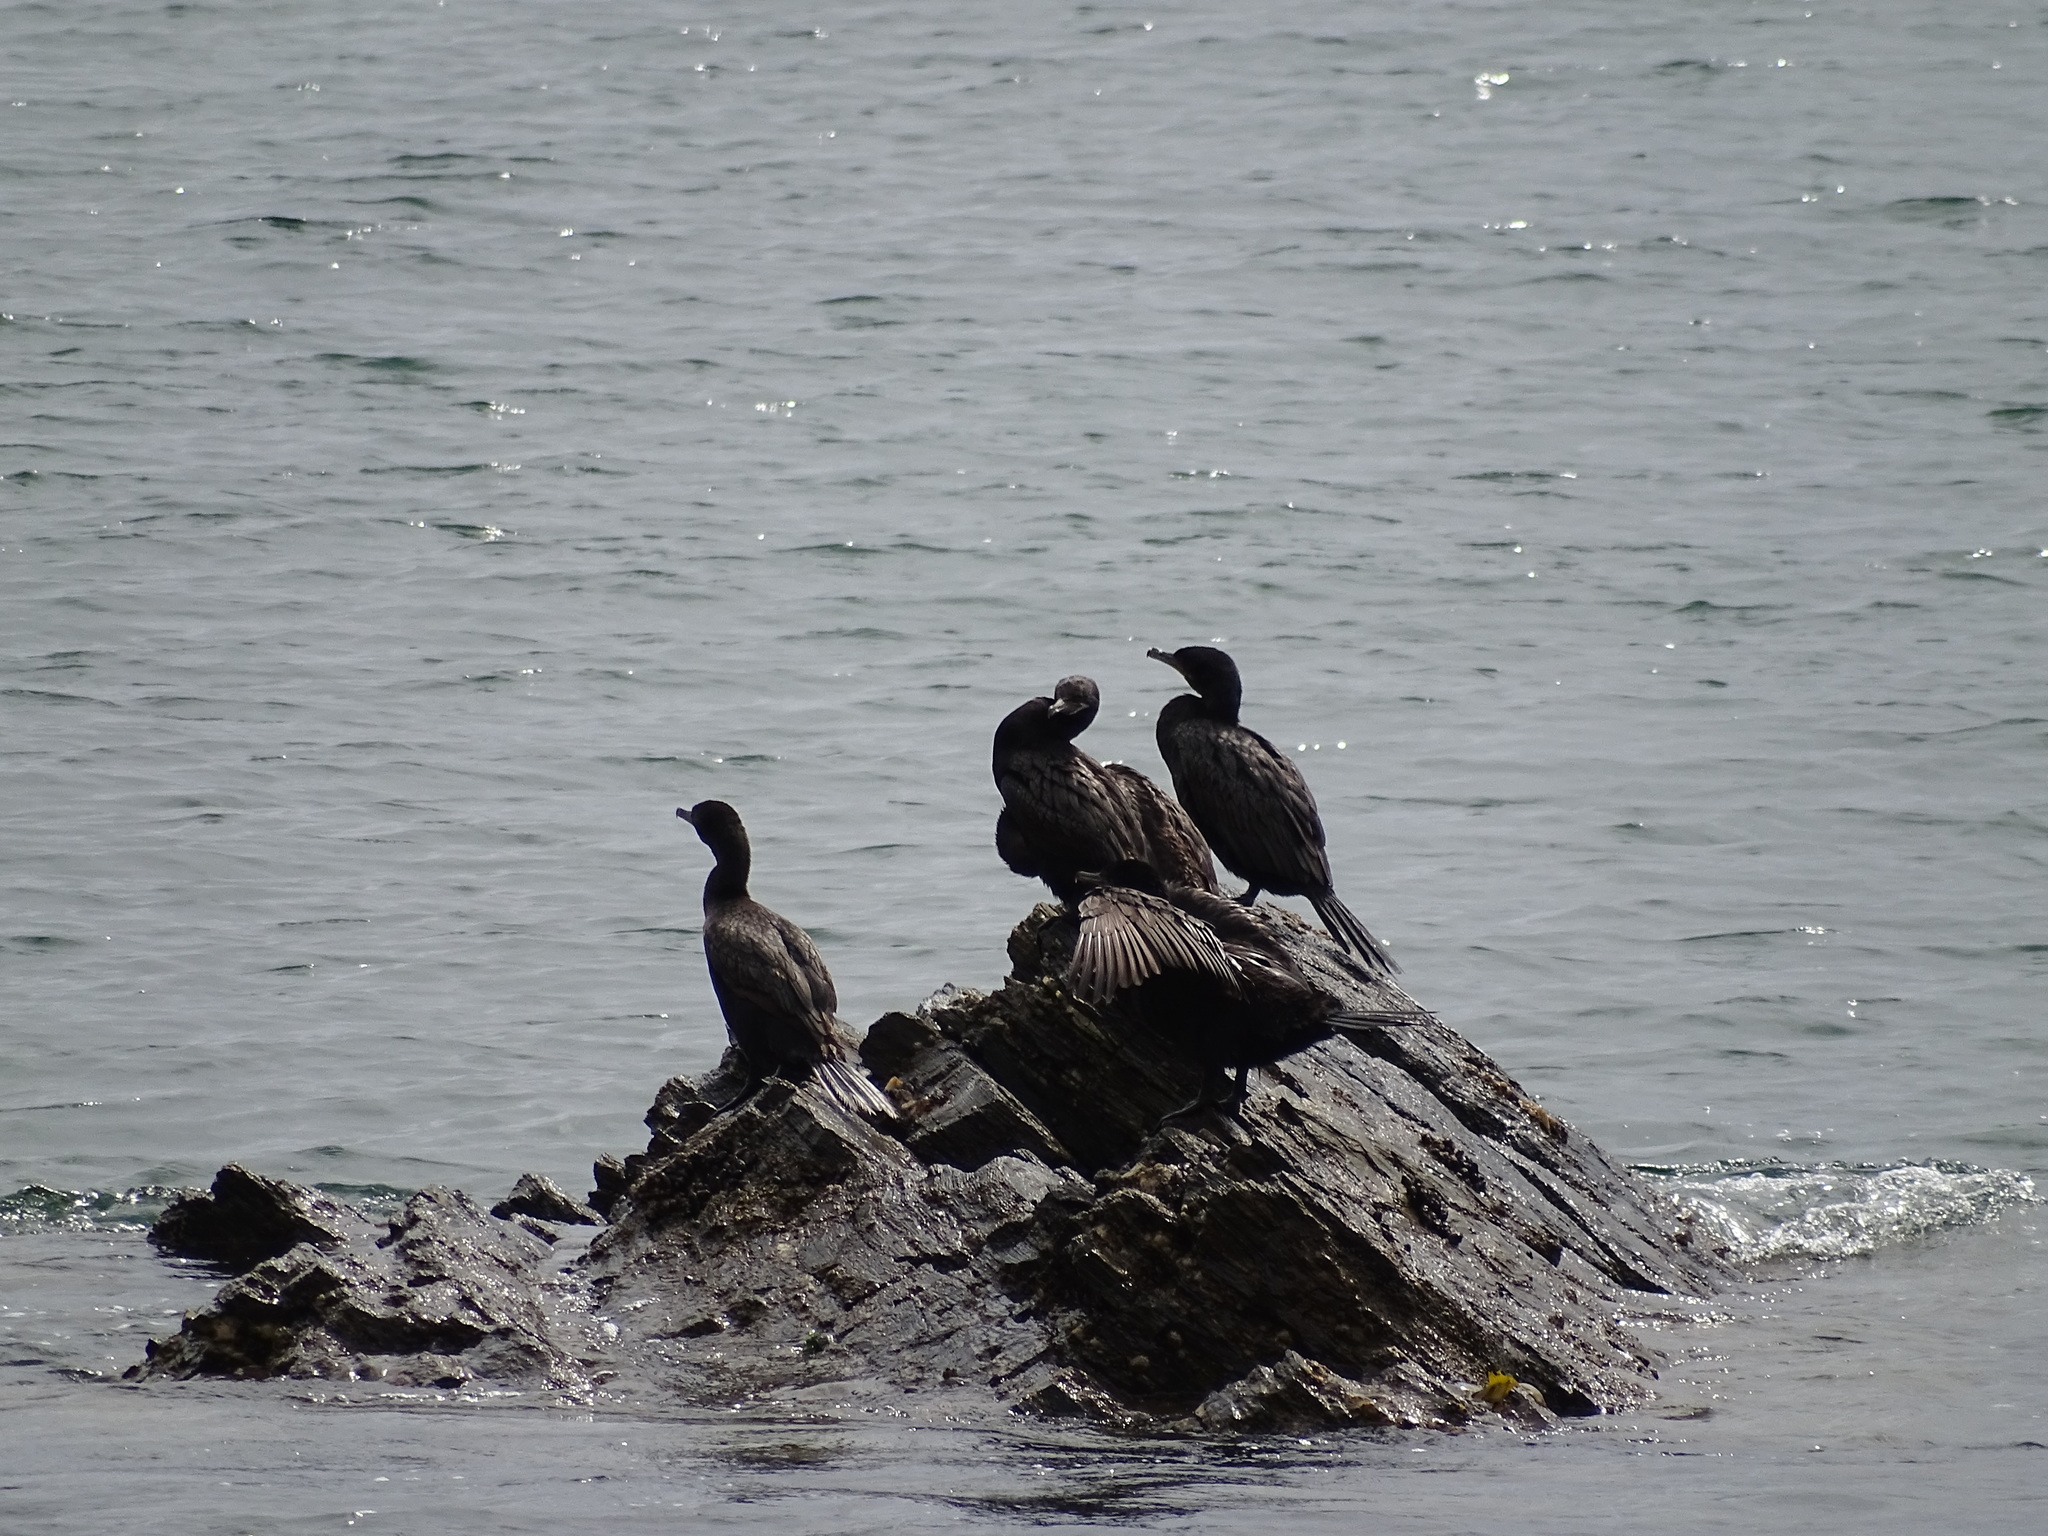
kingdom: Animalia
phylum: Chordata
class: Aves
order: Suliformes
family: Phalacrocoracidae
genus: Phalacrocorax
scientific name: Phalacrocorax brasilianus
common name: Neotropic cormorant
